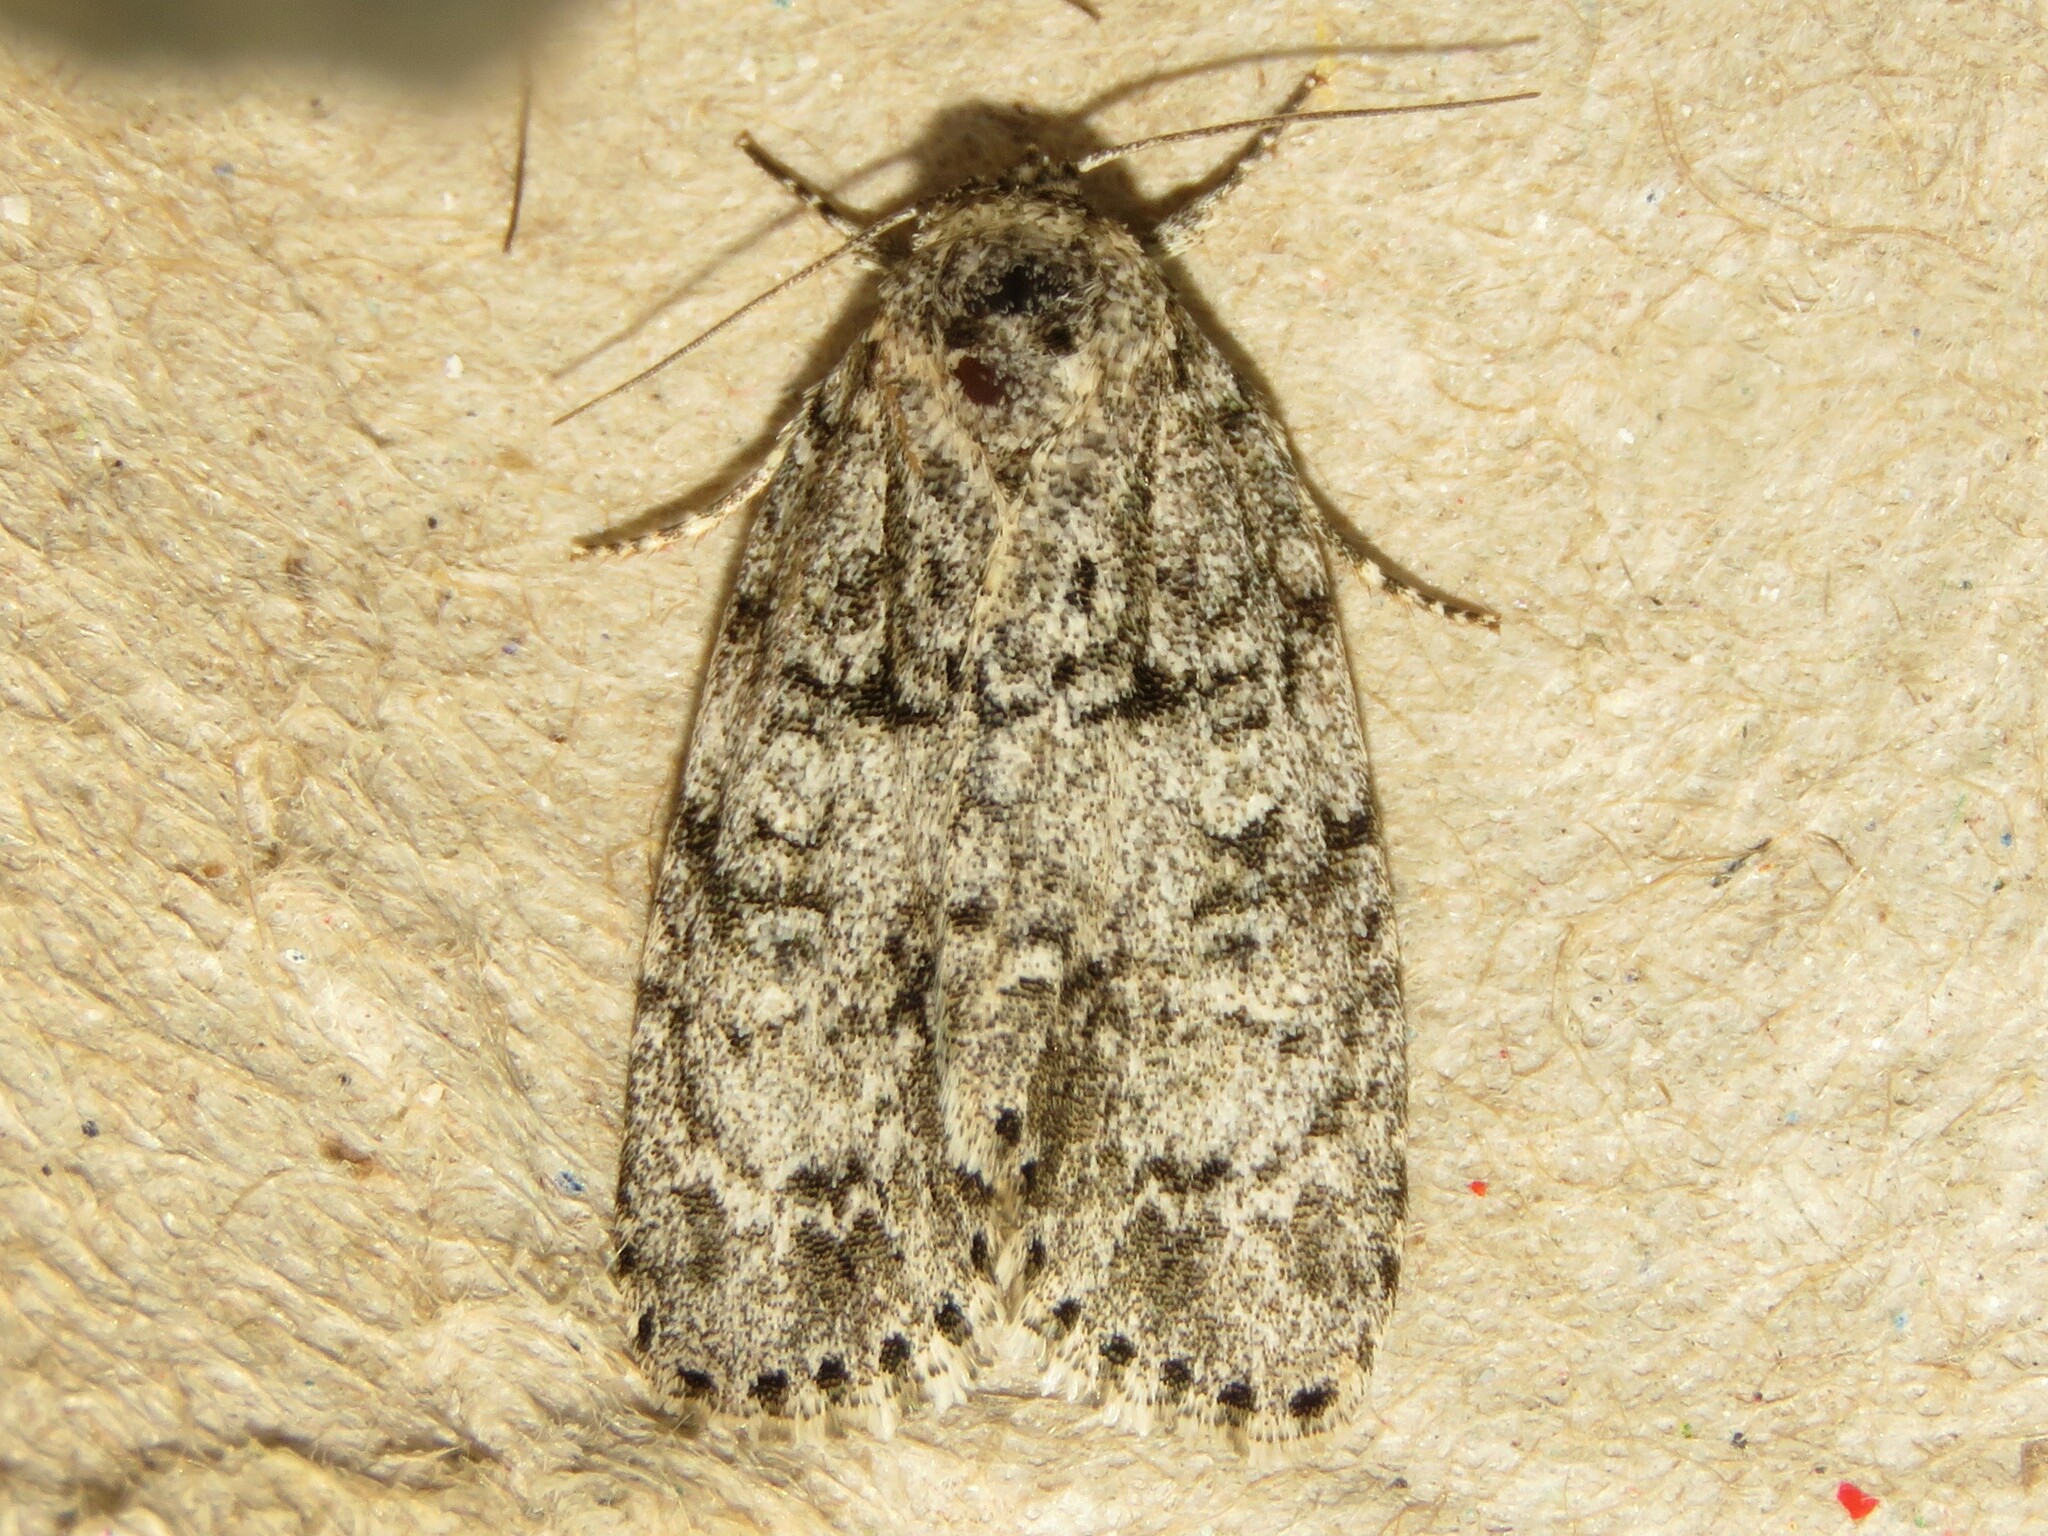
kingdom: Animalia
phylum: Arthropoda
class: Insecta
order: Lepidoptera
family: Noctuidae
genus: Acronicta
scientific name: Acronicta retardata
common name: Maple dagger
